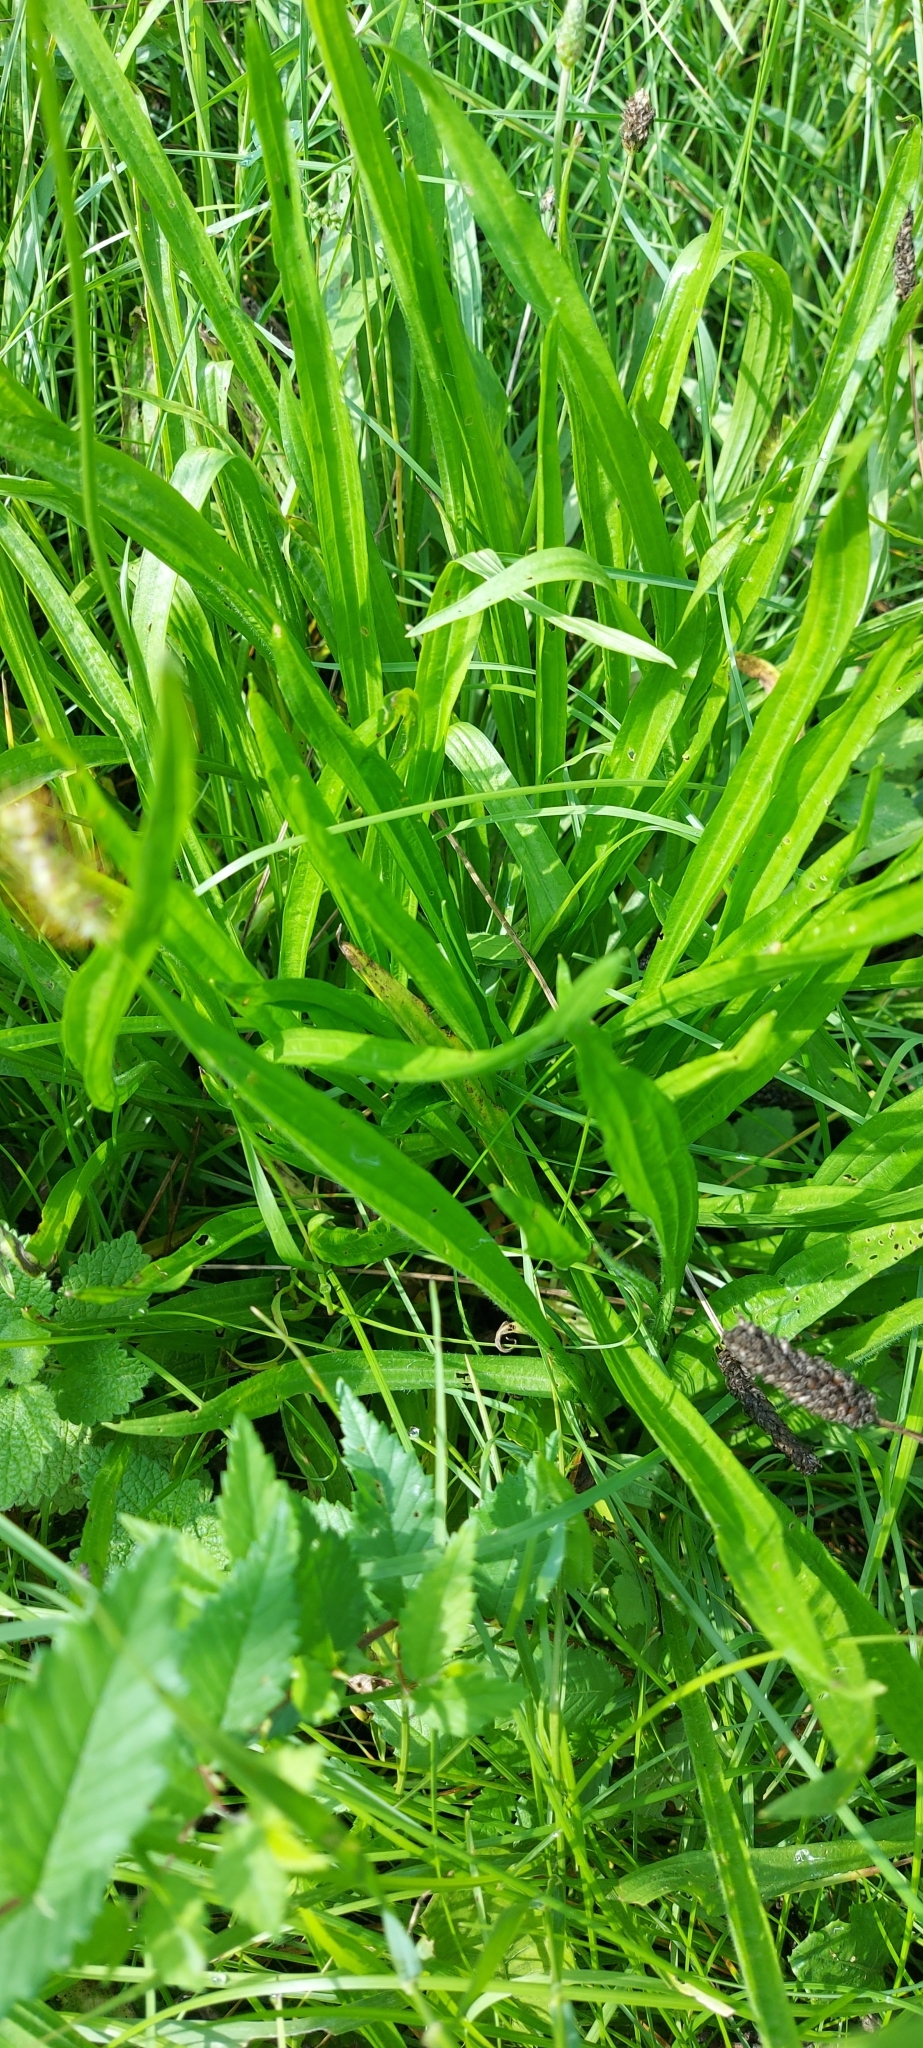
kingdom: Plantae
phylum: Tracheophyta
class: Magnoliopsida
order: Lamiales
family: Plantaginaceae
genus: Plantago
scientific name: Plantago lanceolata
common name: Ribwort plantain
